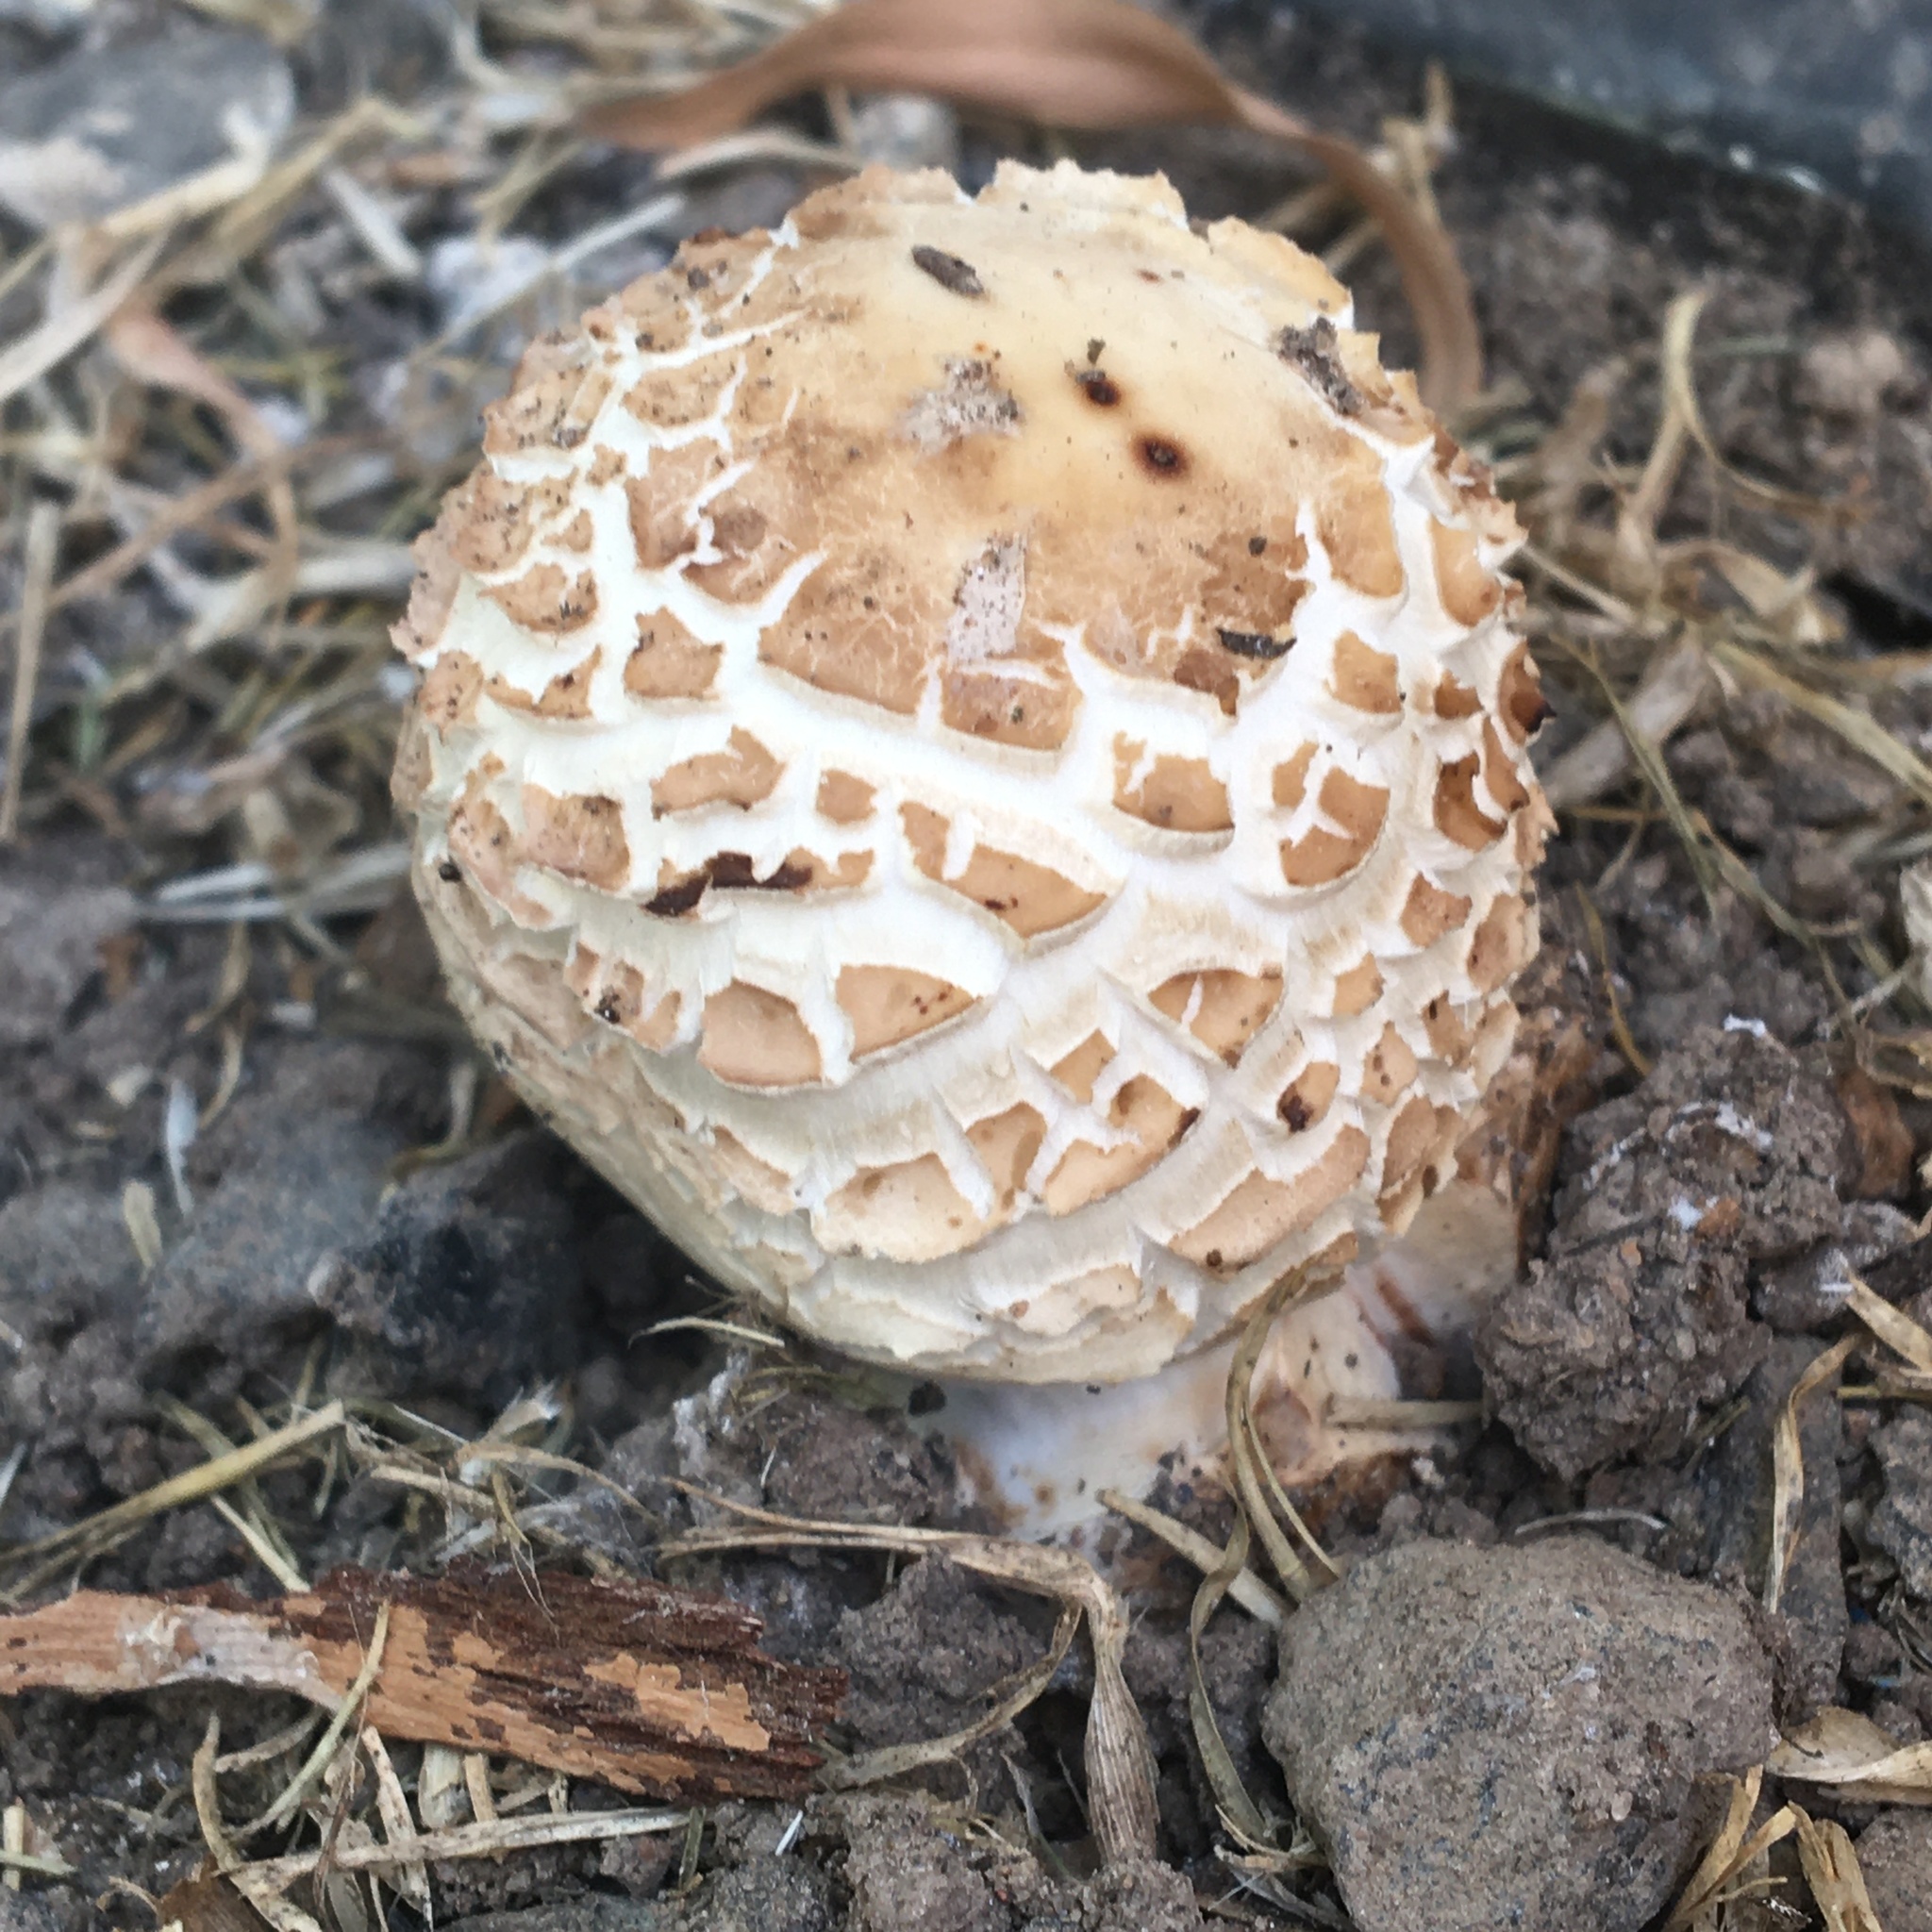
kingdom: Fungi
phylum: Basidiomycota
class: Agaricomycetes
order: Agaricales
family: Agaricaceae
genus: Chlorophyllum
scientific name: Chlorophyllum brunneum
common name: Brown parasol
